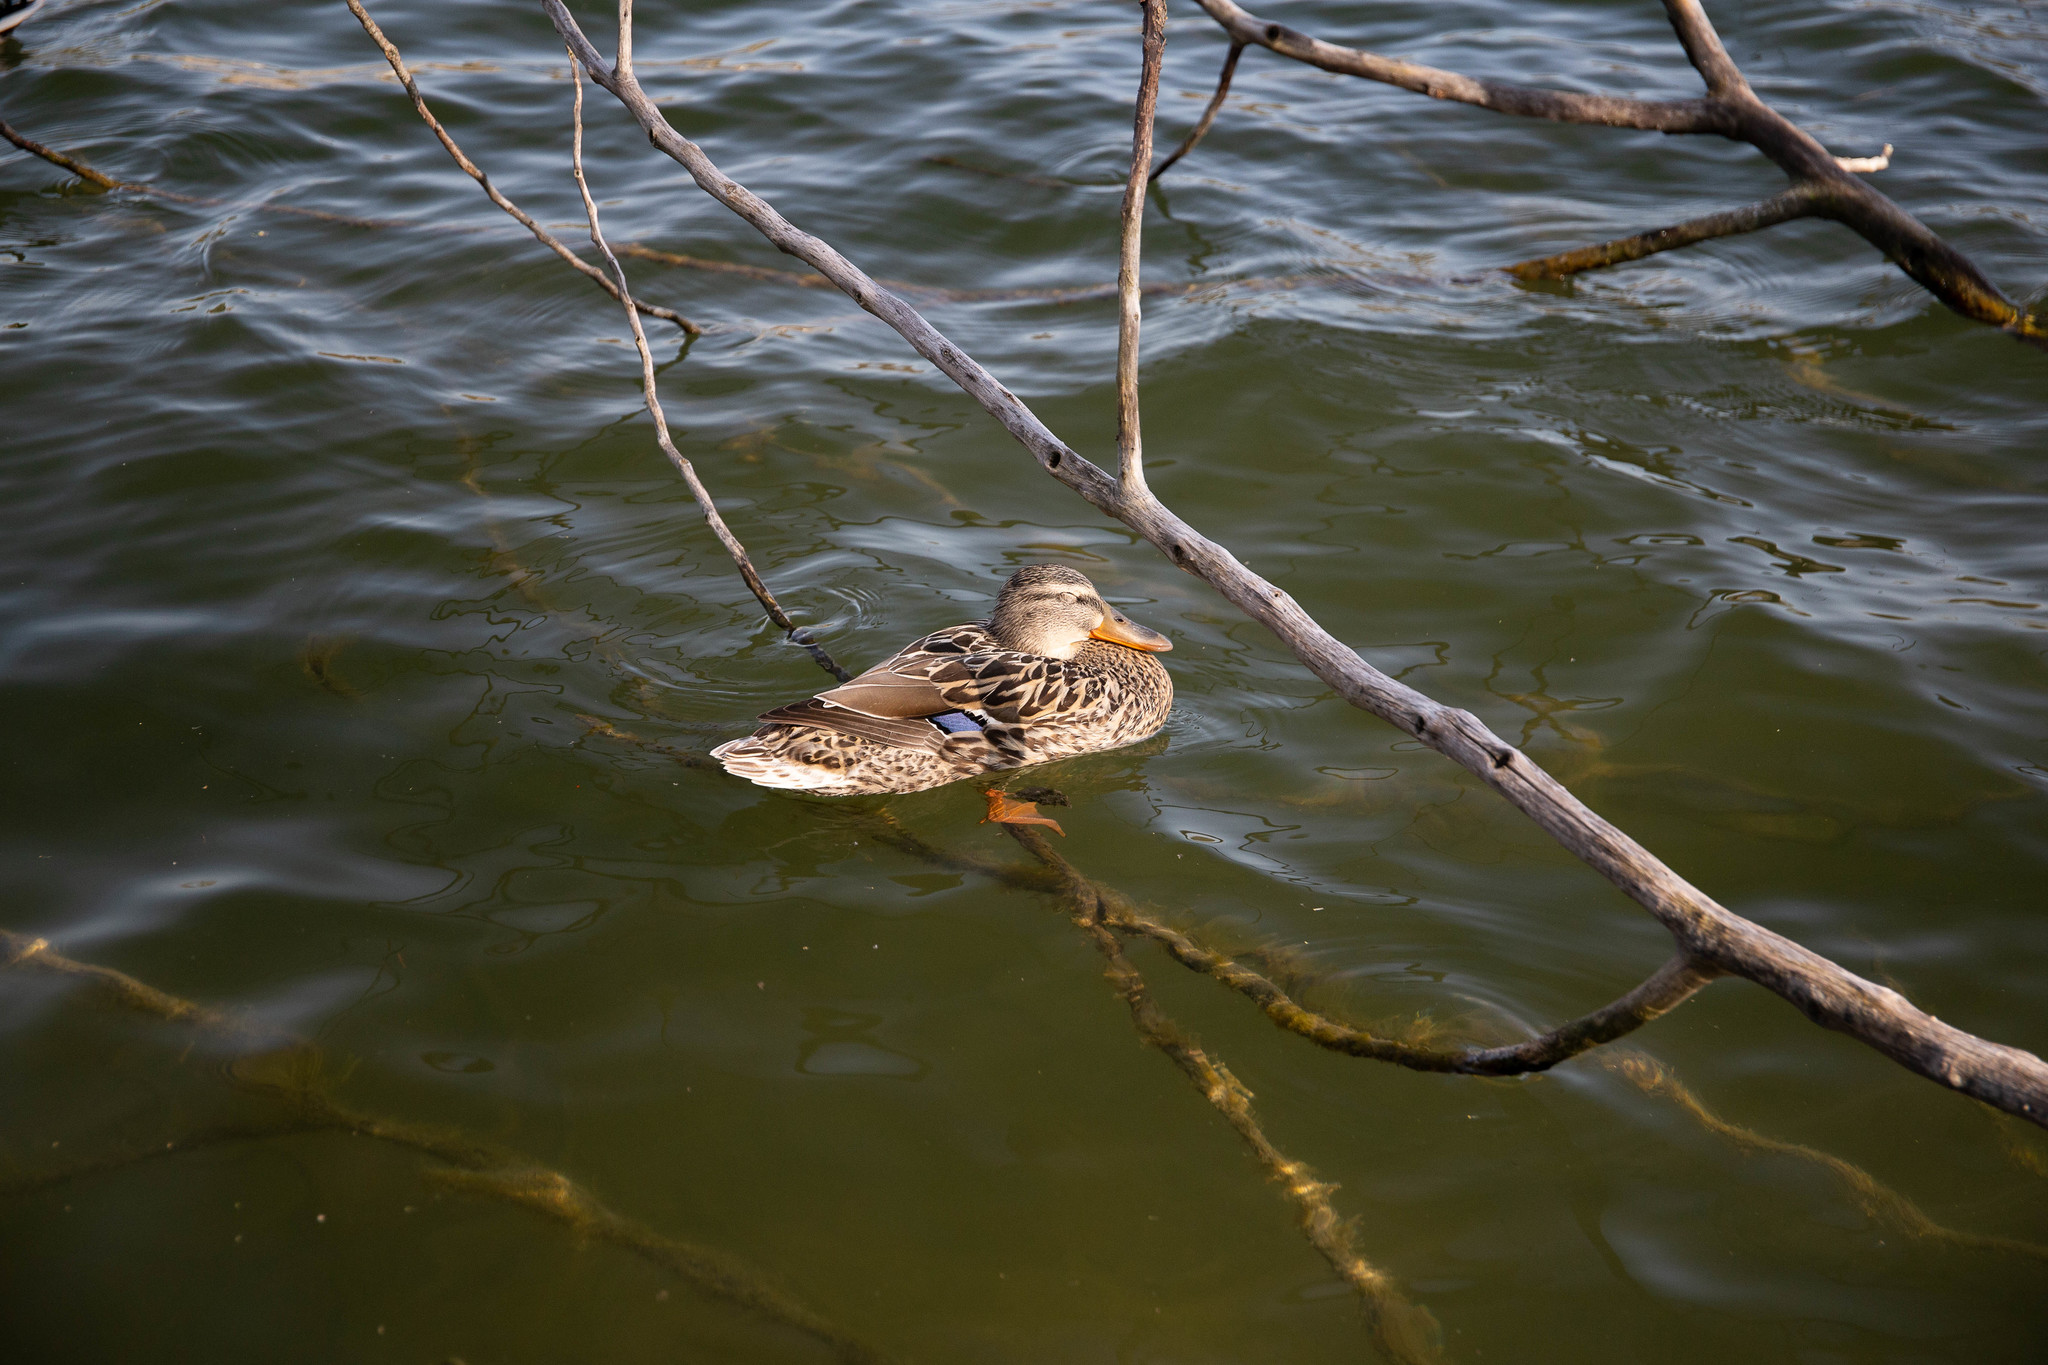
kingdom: Animalia
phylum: Chordata
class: Aves
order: Anseriformes
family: Anatidae
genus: Anas
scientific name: Anas platyrhynchos
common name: Mallard
